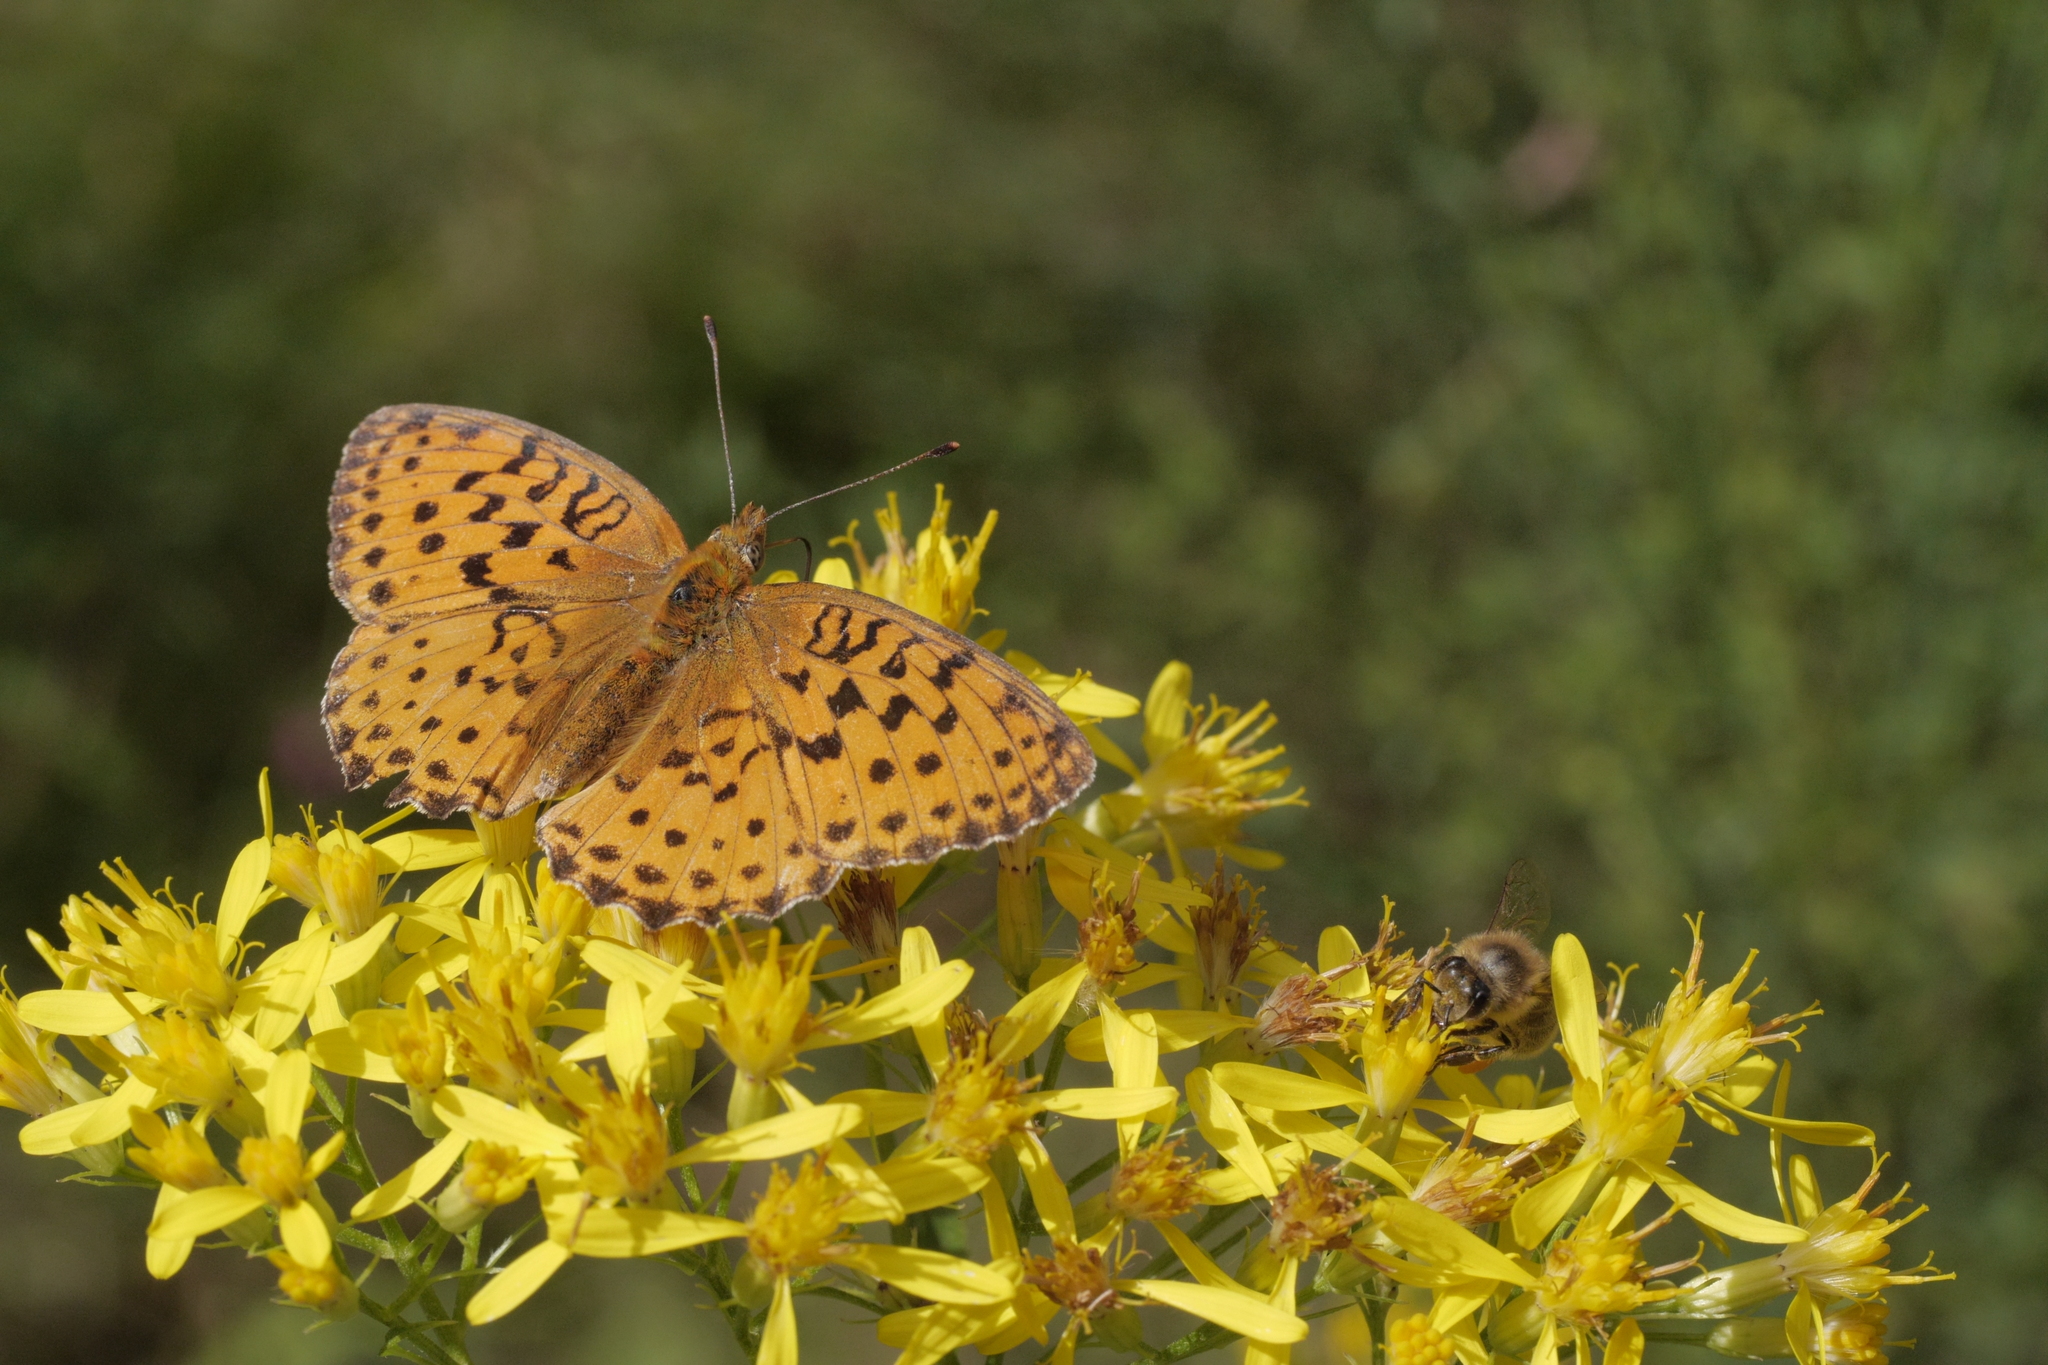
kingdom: Animalia
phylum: Arthropoda
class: Insecta
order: Lepidoptera
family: Nymphalidae
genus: Brenthis
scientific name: Brenthis daphne
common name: Marbled fritillary
